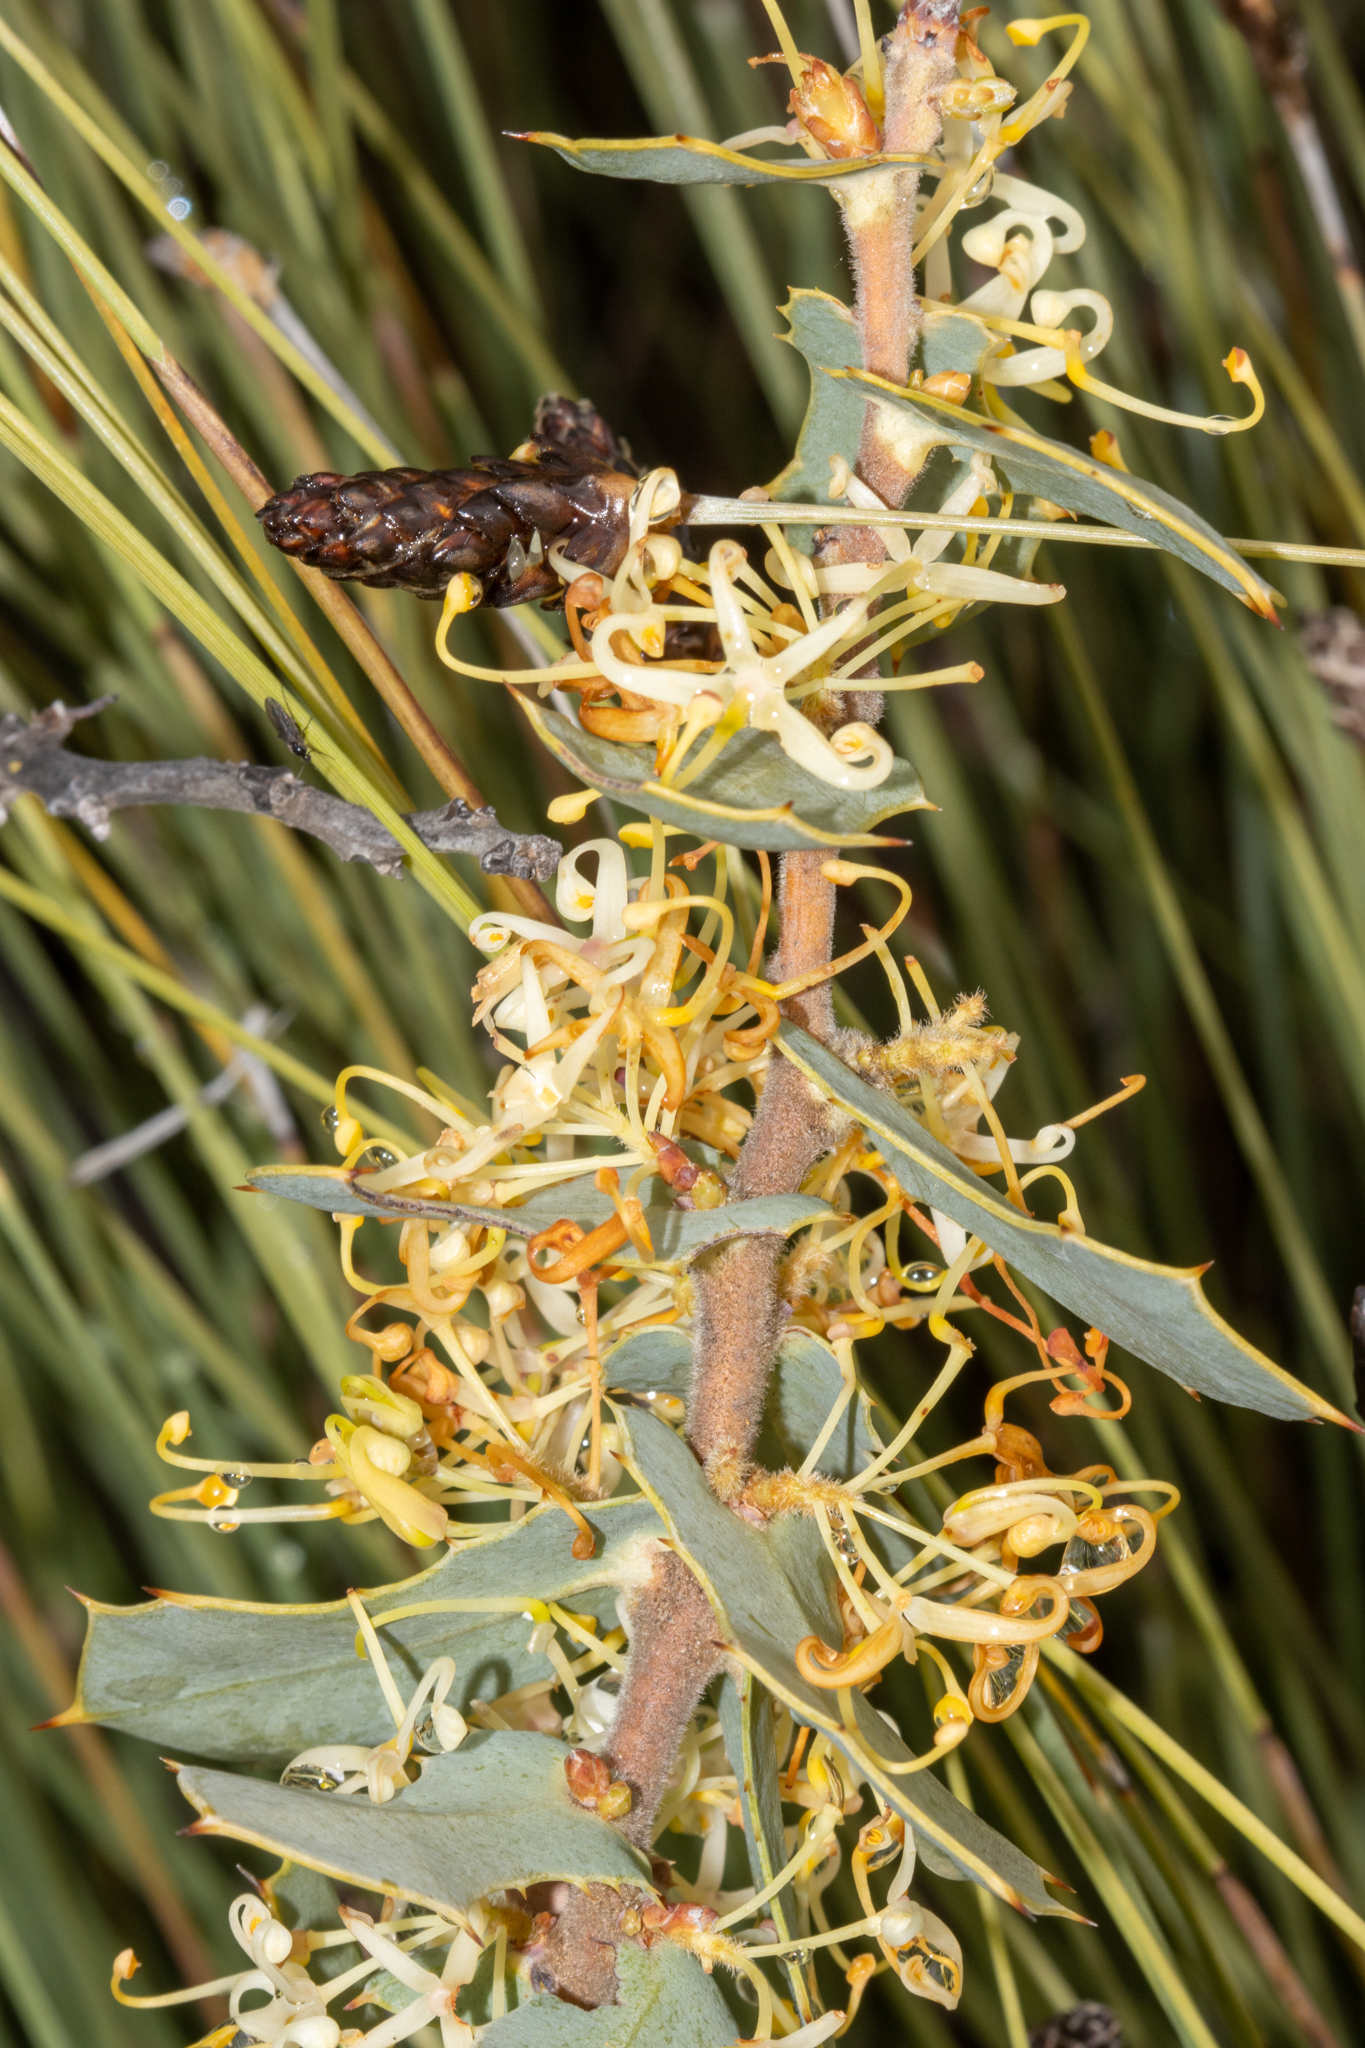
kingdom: Plantae
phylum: Tracheophyta
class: Magnoliopsida
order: Proteales
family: Proteaceae
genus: Hakea
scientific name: Hakea prostrata
